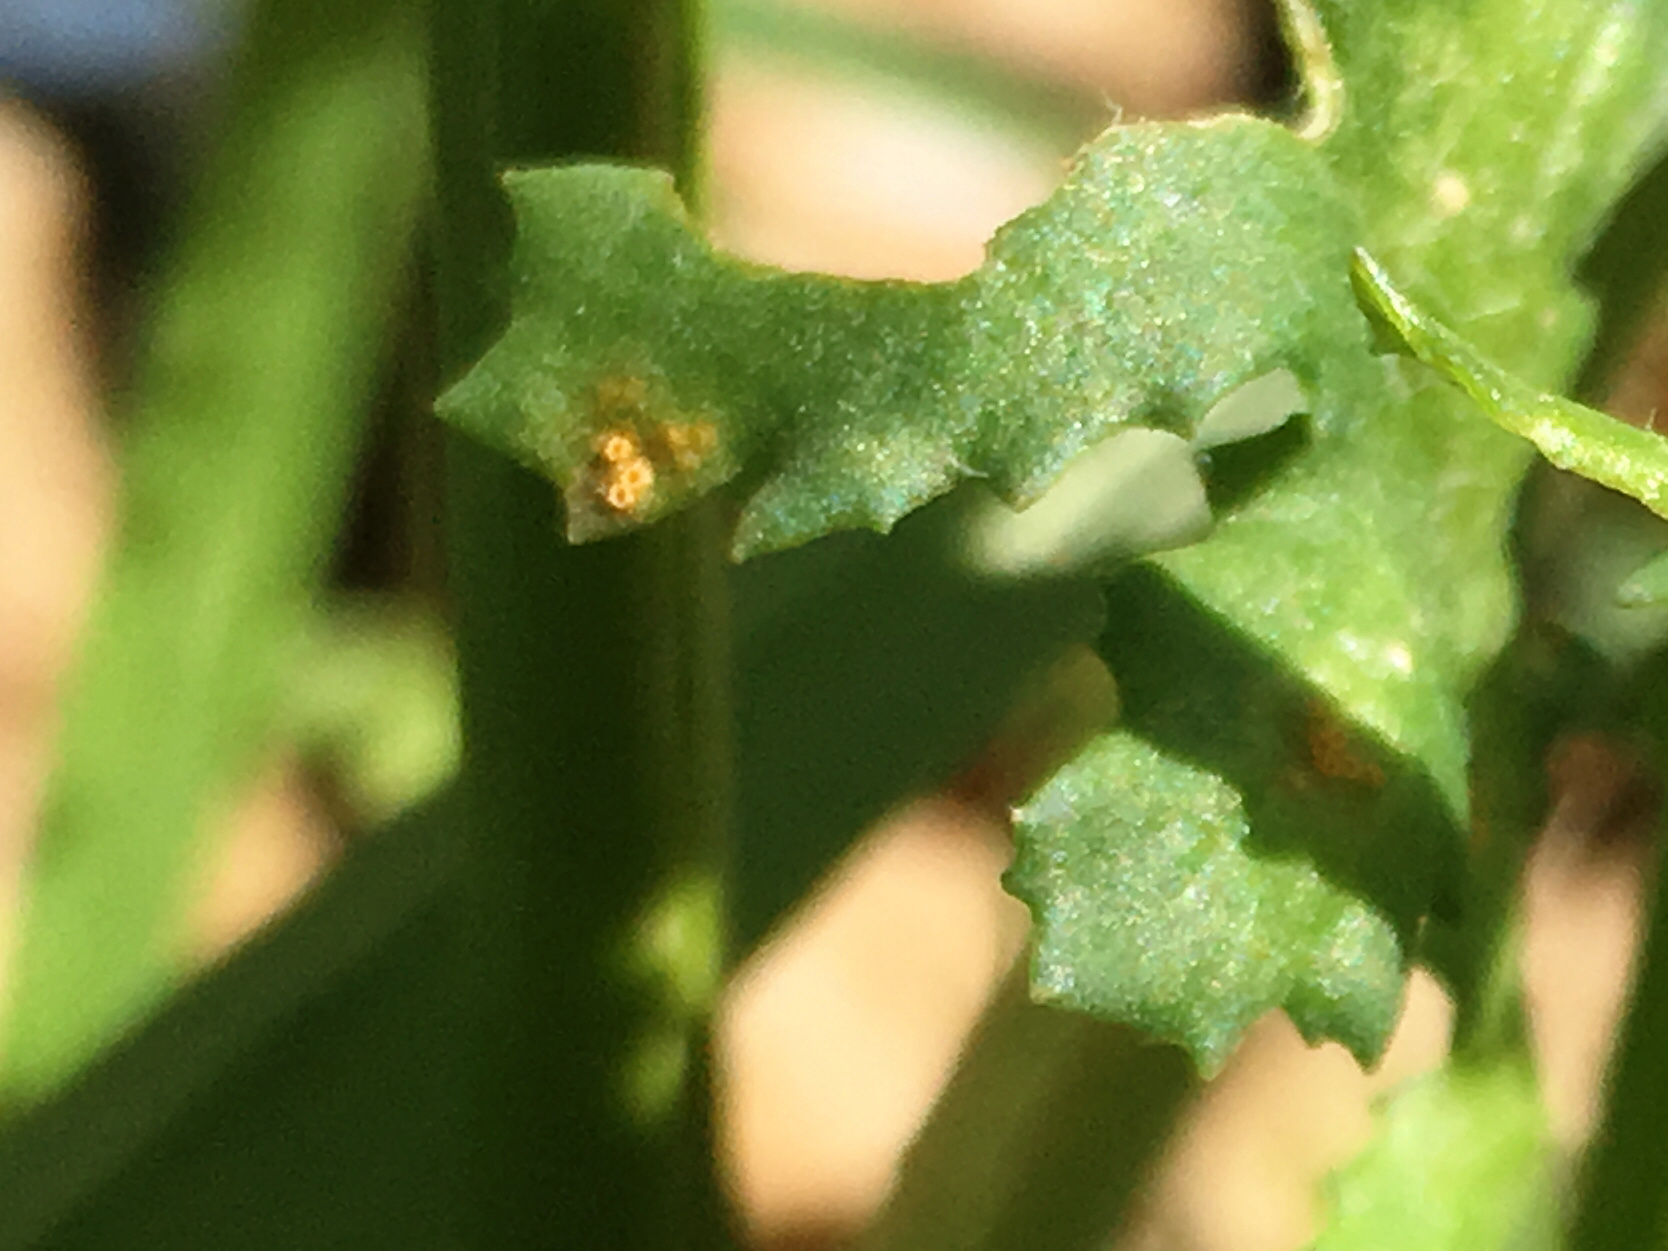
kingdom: Fungi
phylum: Basidiomycota
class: Pucciniomycetes
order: Pucciniales
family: Pucciniaceae
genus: Puccinia
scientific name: Puccinia lagenophorae
